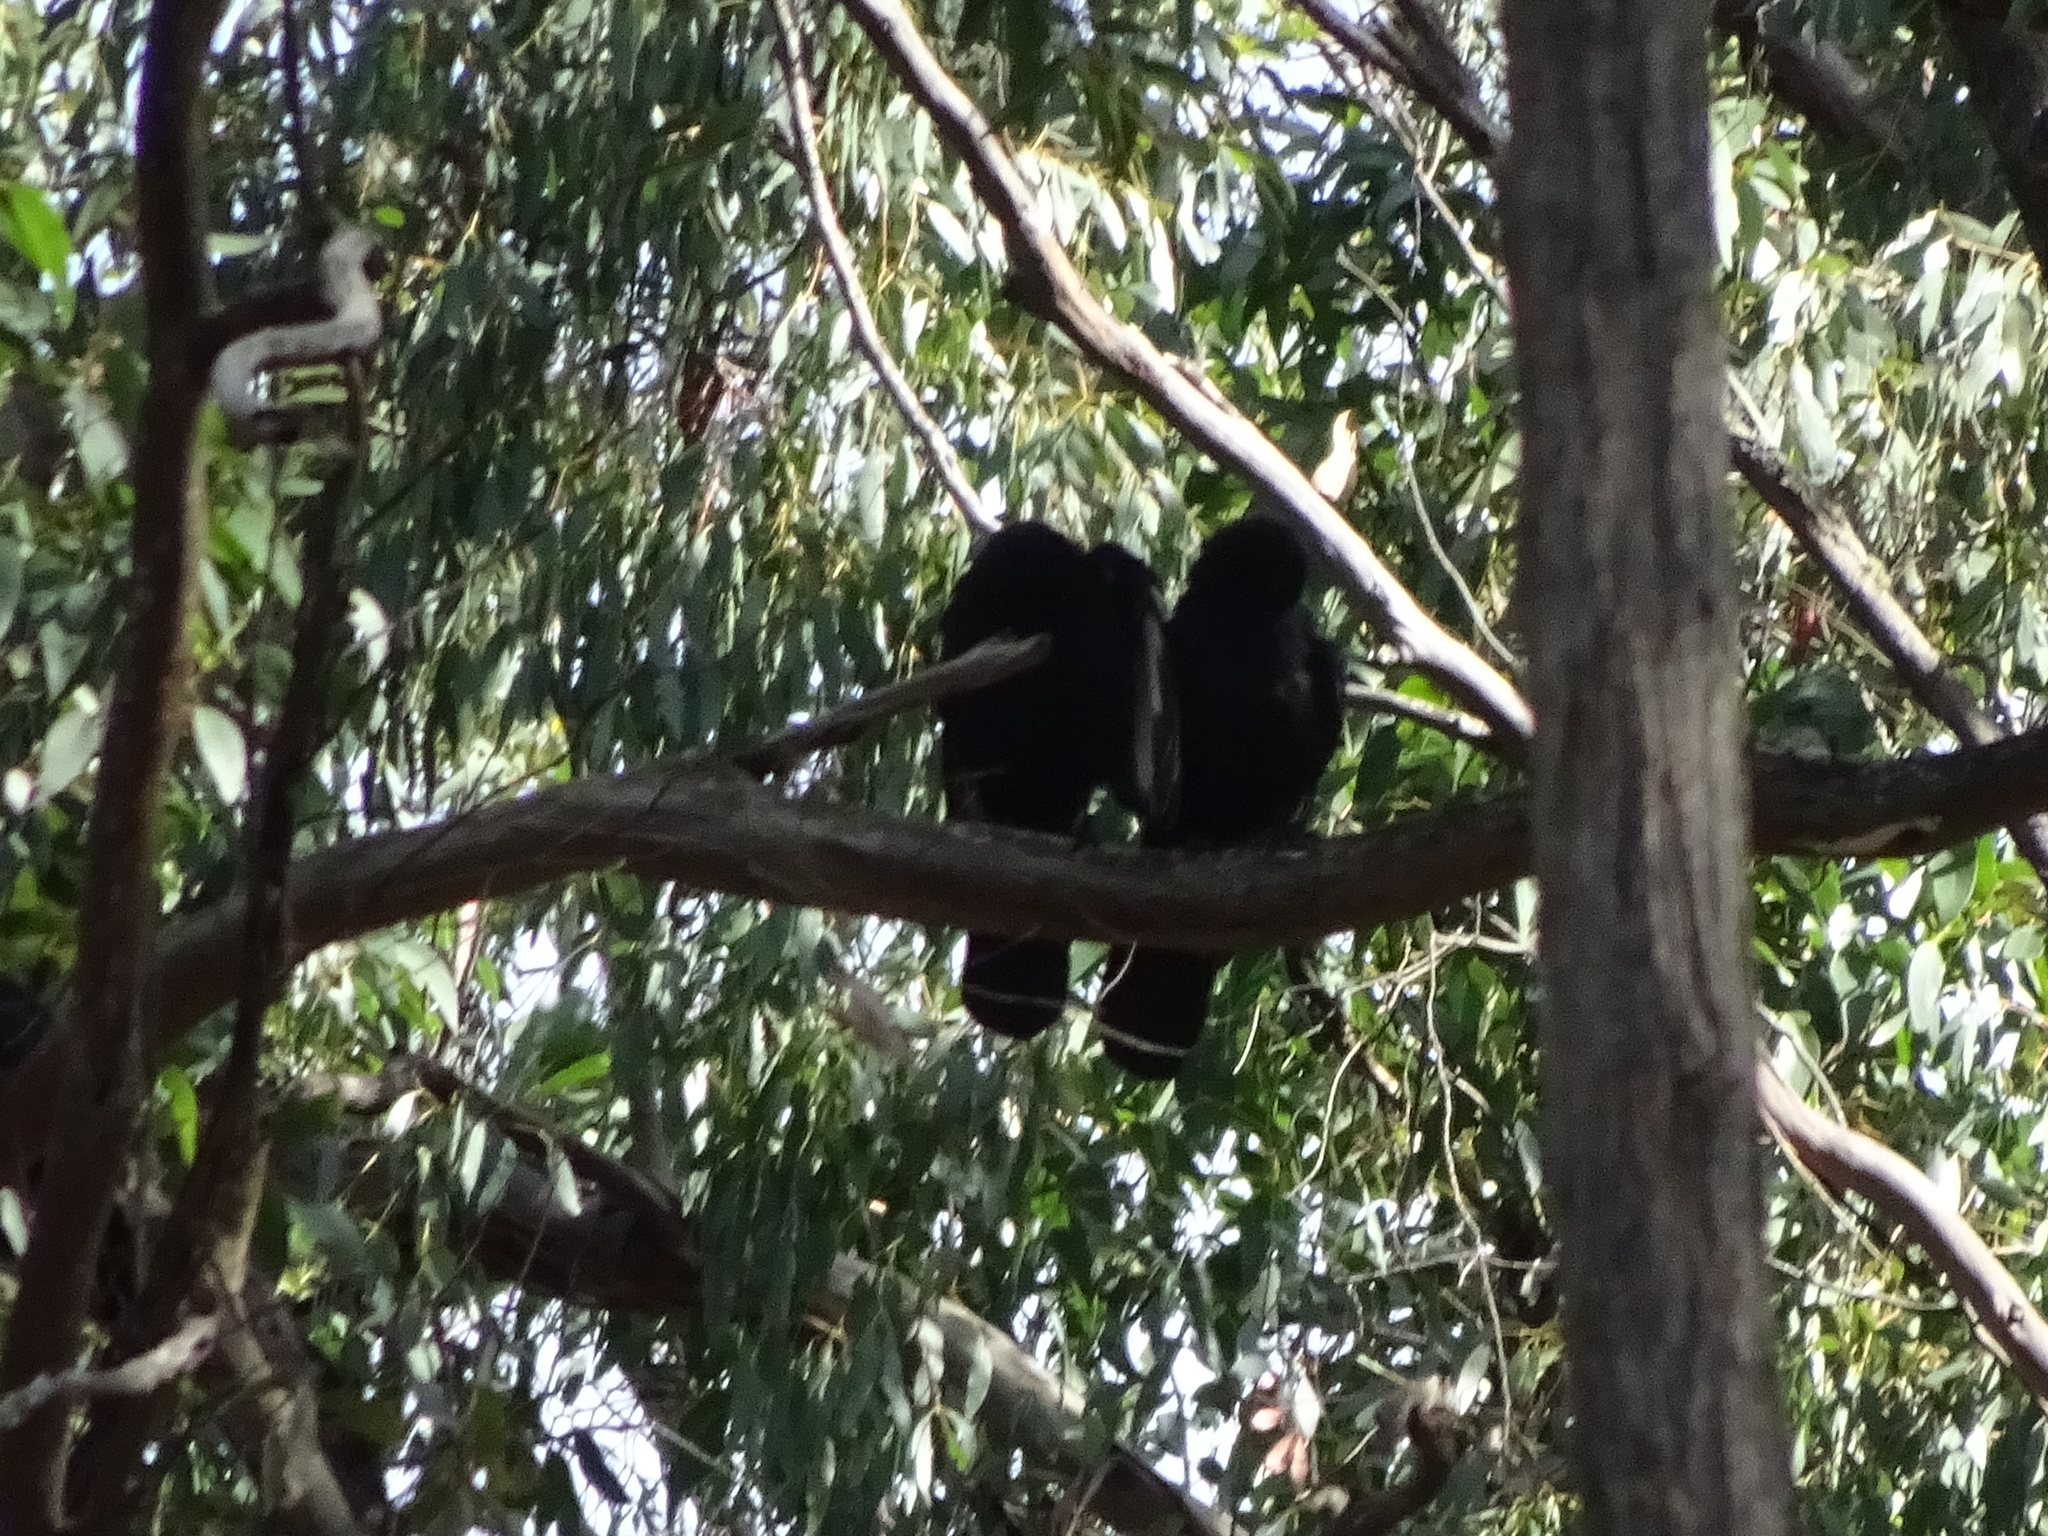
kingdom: Animalia
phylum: Chordata
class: Aves
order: Passeriformes
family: Corcoracidae
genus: Corcorax
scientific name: Corcorax melanoramphos
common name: White-winged chough
